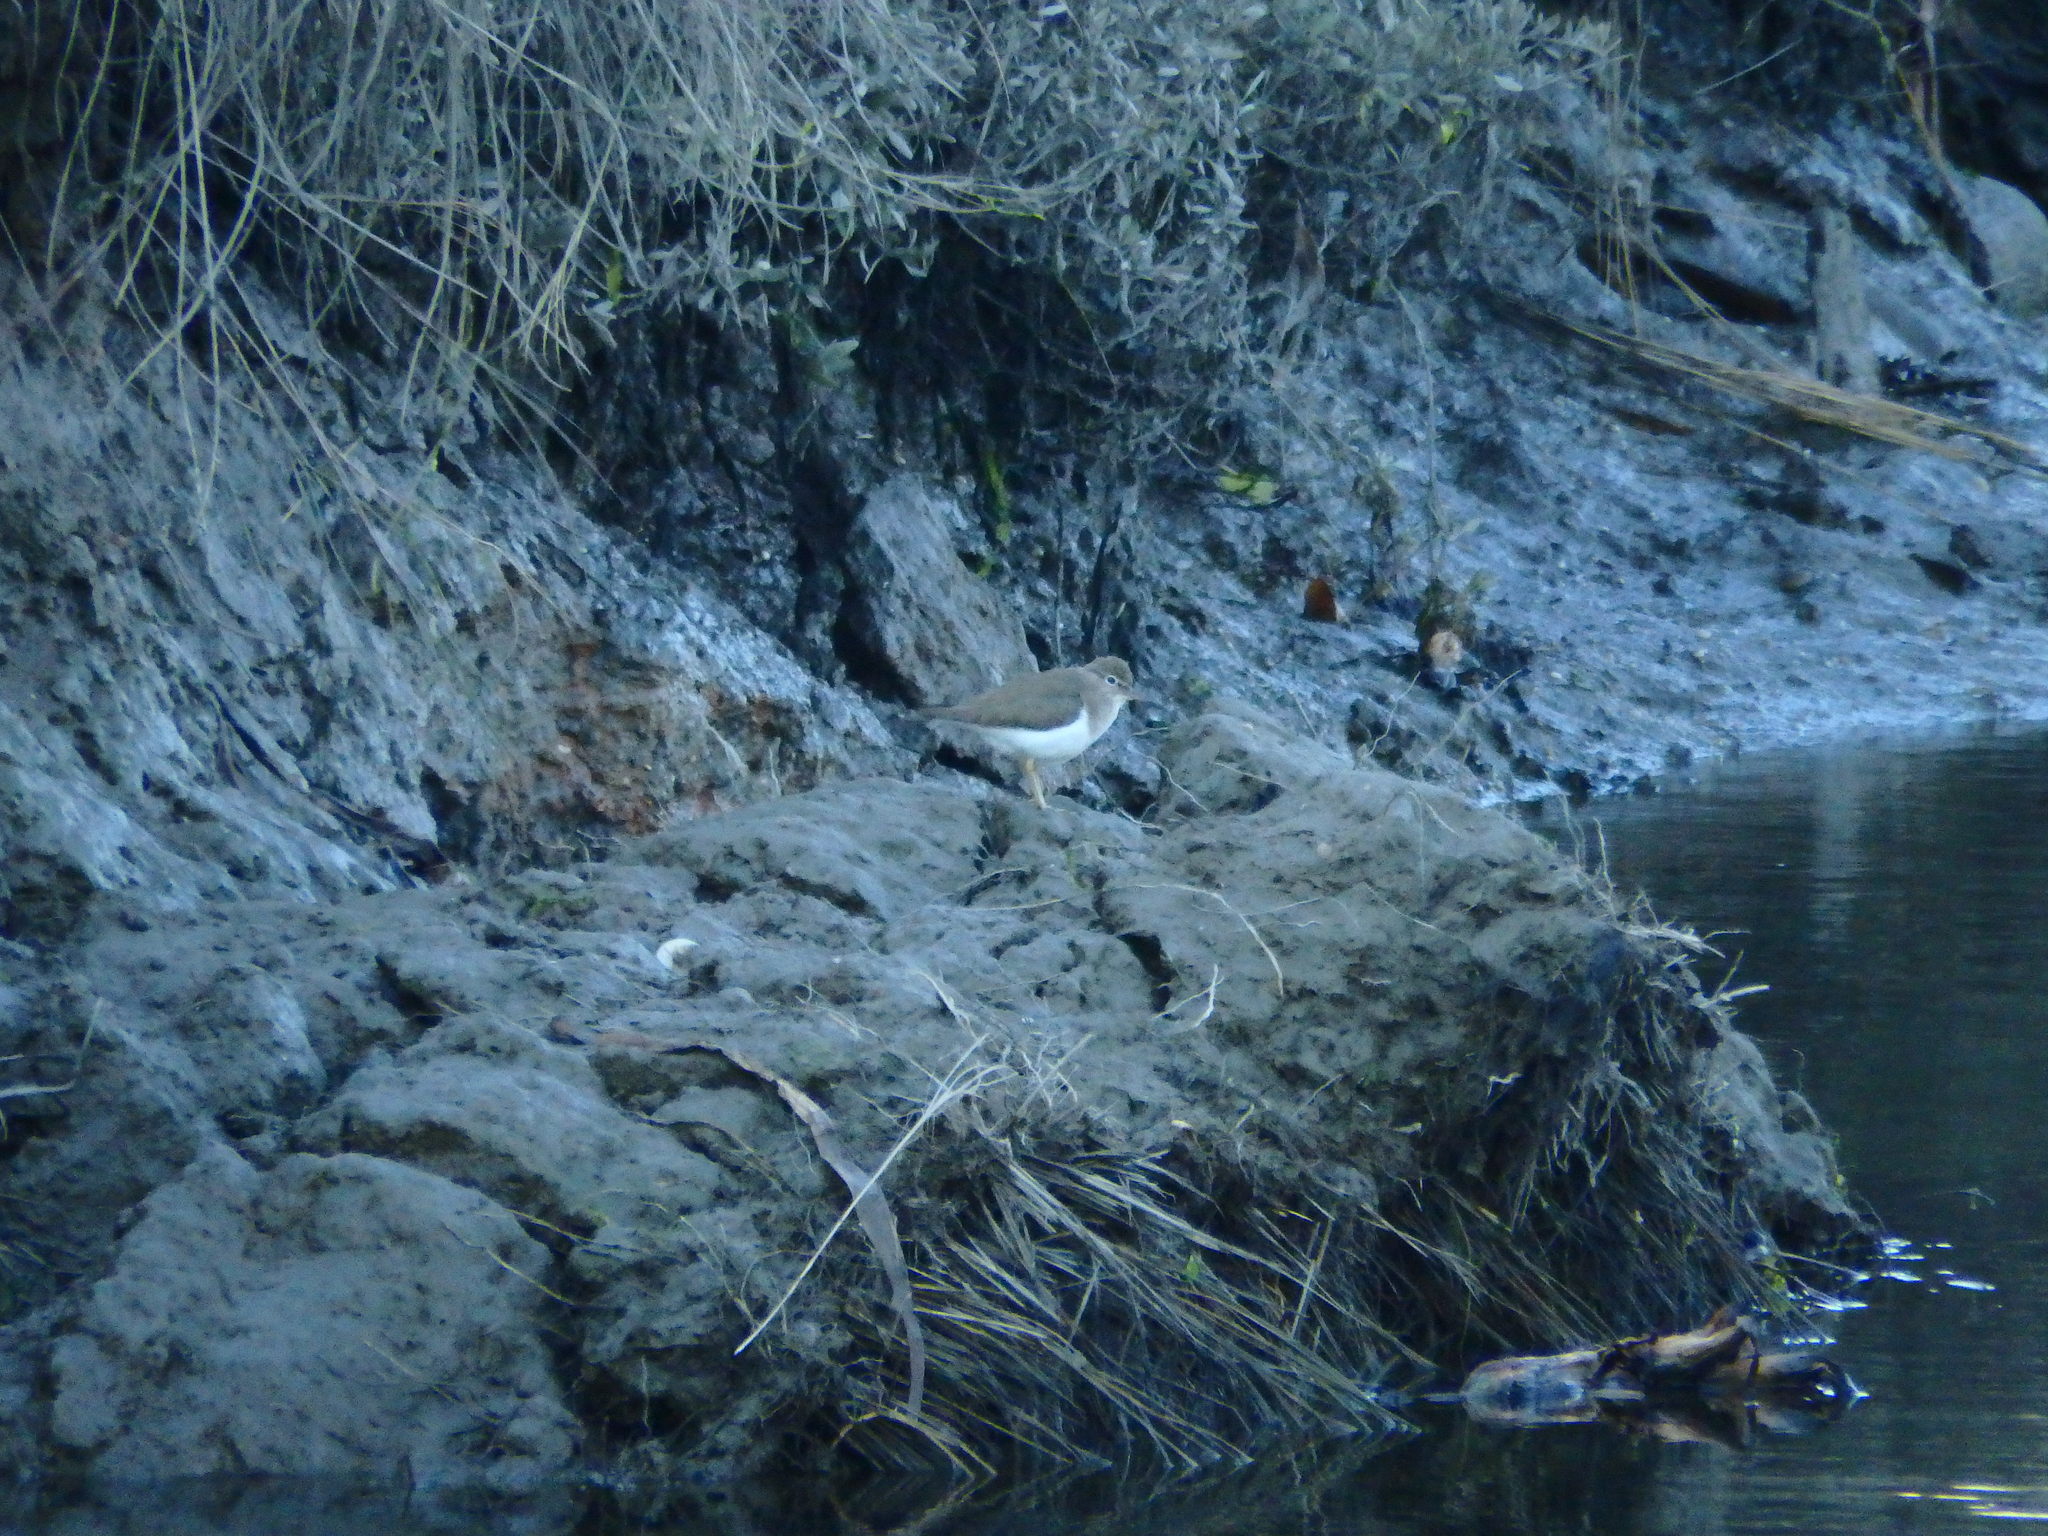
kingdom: Animalia
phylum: Chordata
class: Aves
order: Charadriiformes
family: Scolopacidae
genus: Actitis
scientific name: Actitis hypoleucos
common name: Common sandpiper
